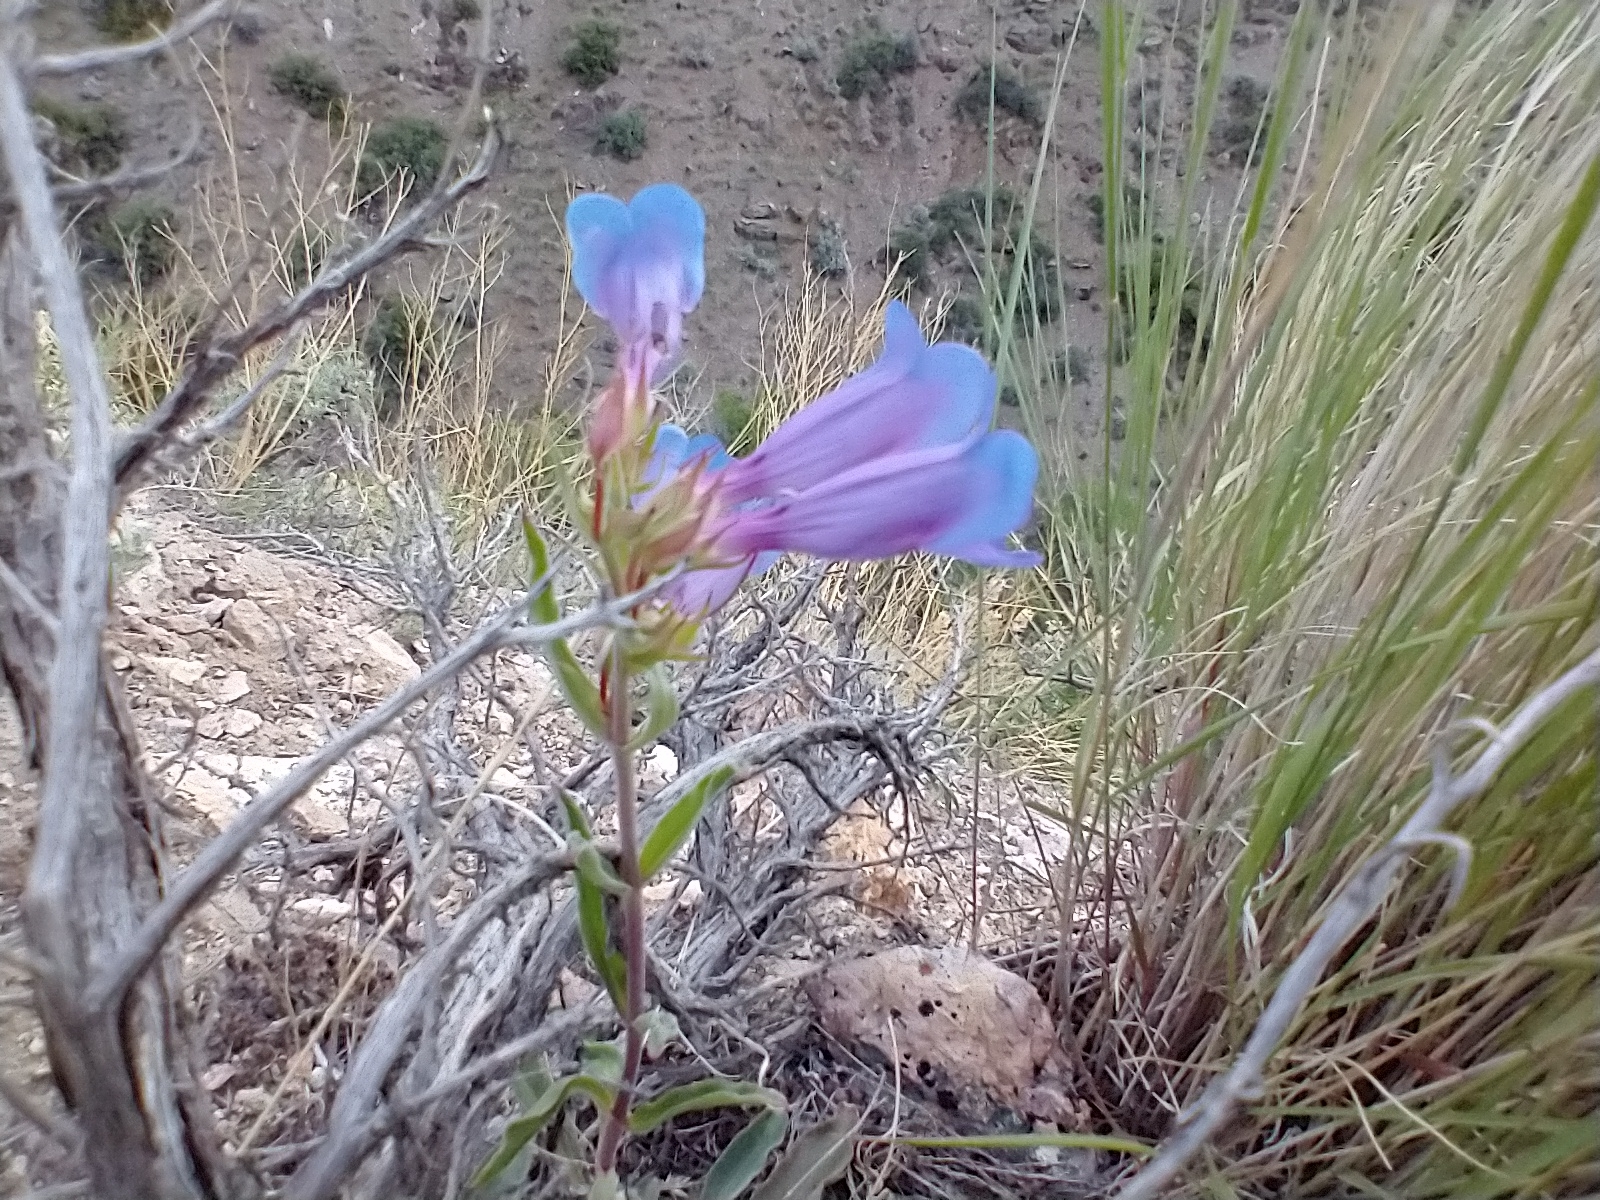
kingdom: Plantae
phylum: Tracheophyta
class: Magnoliopsida
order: Lamiales
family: Plantaginaceae
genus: Penstemon
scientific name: Penstemon speciosus
